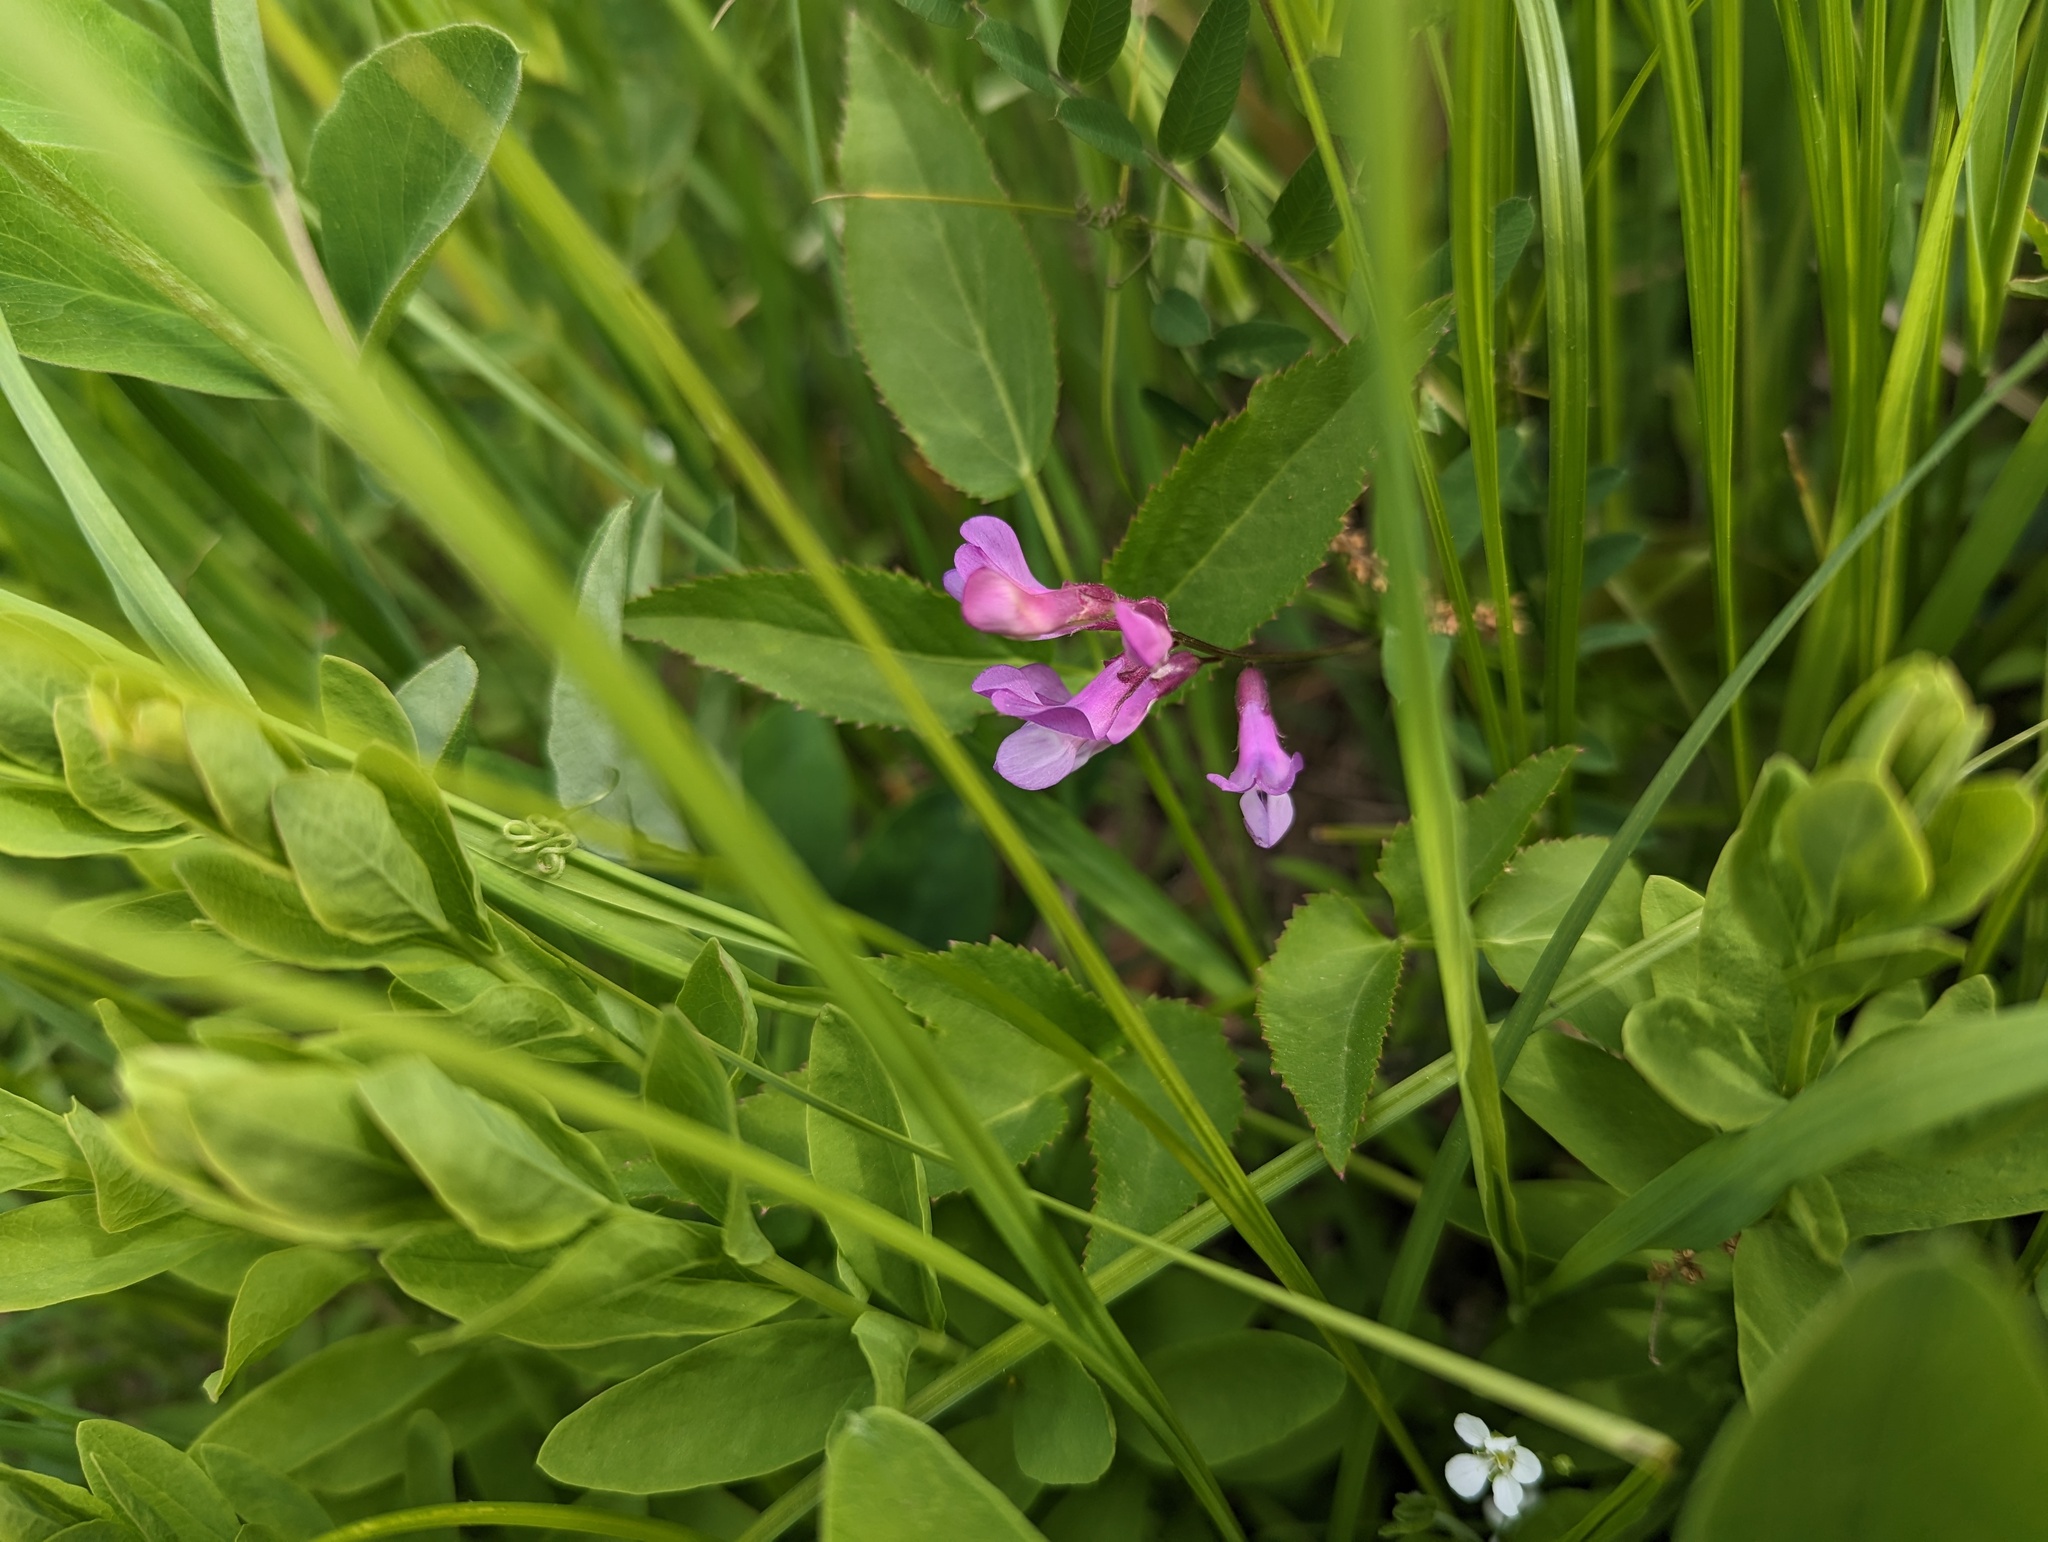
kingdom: Plantae
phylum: Tracheophyta
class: Magnoliopsida
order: Fabales
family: Fabaceae
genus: Vicia
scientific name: Vicia americana
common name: American vetch
